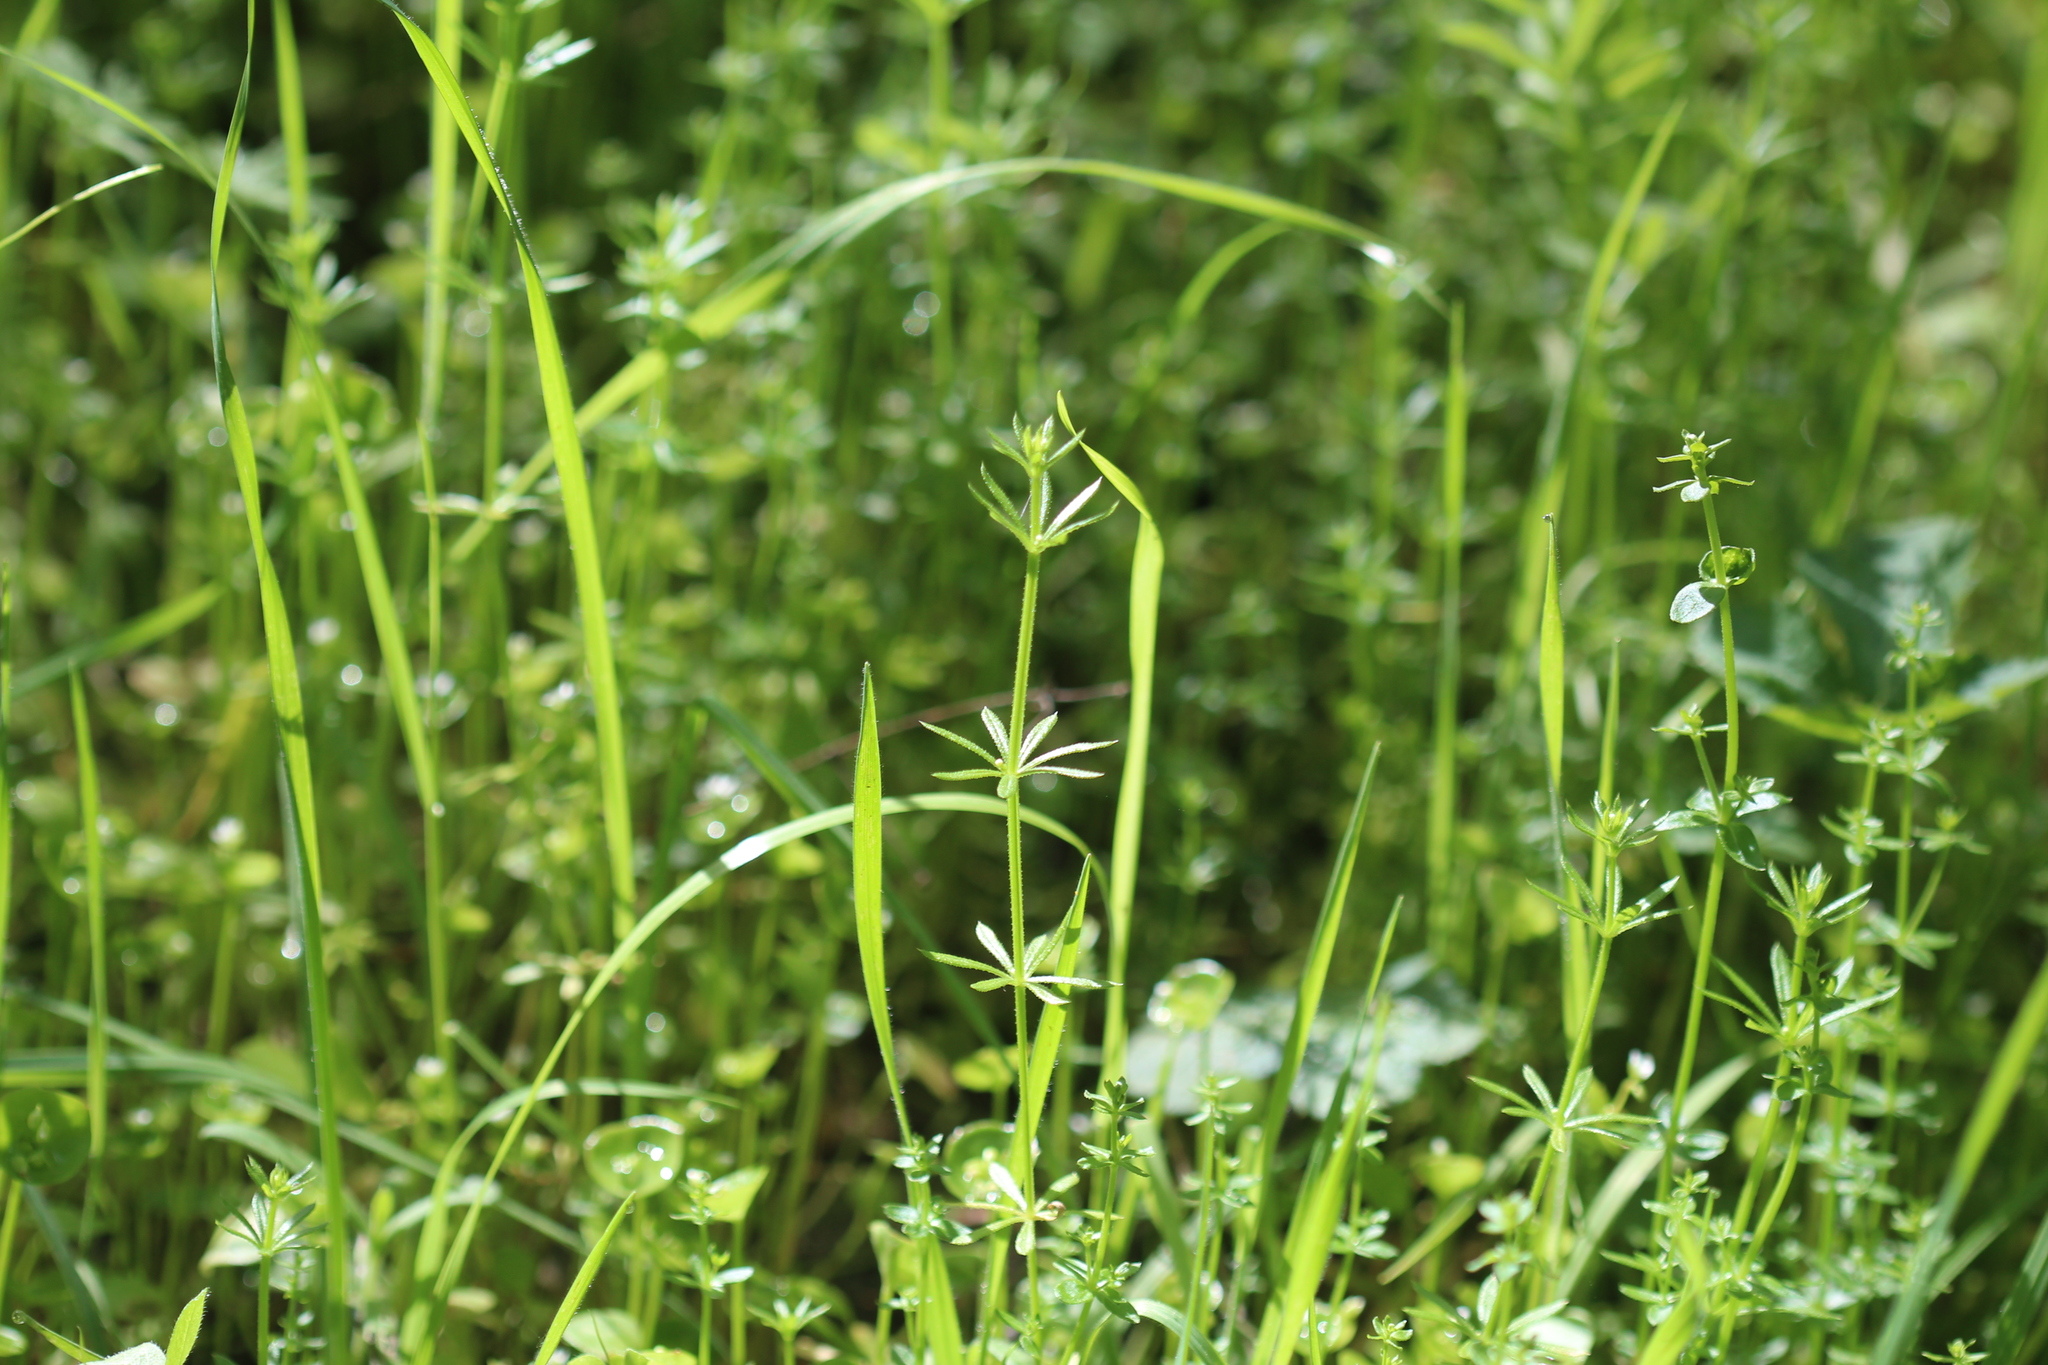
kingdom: Plantae
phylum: Tracheophyta
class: Magnoliopsida
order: Gentianales
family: Rubiaceae
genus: Galium
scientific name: Galium aparine
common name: Cleavers
